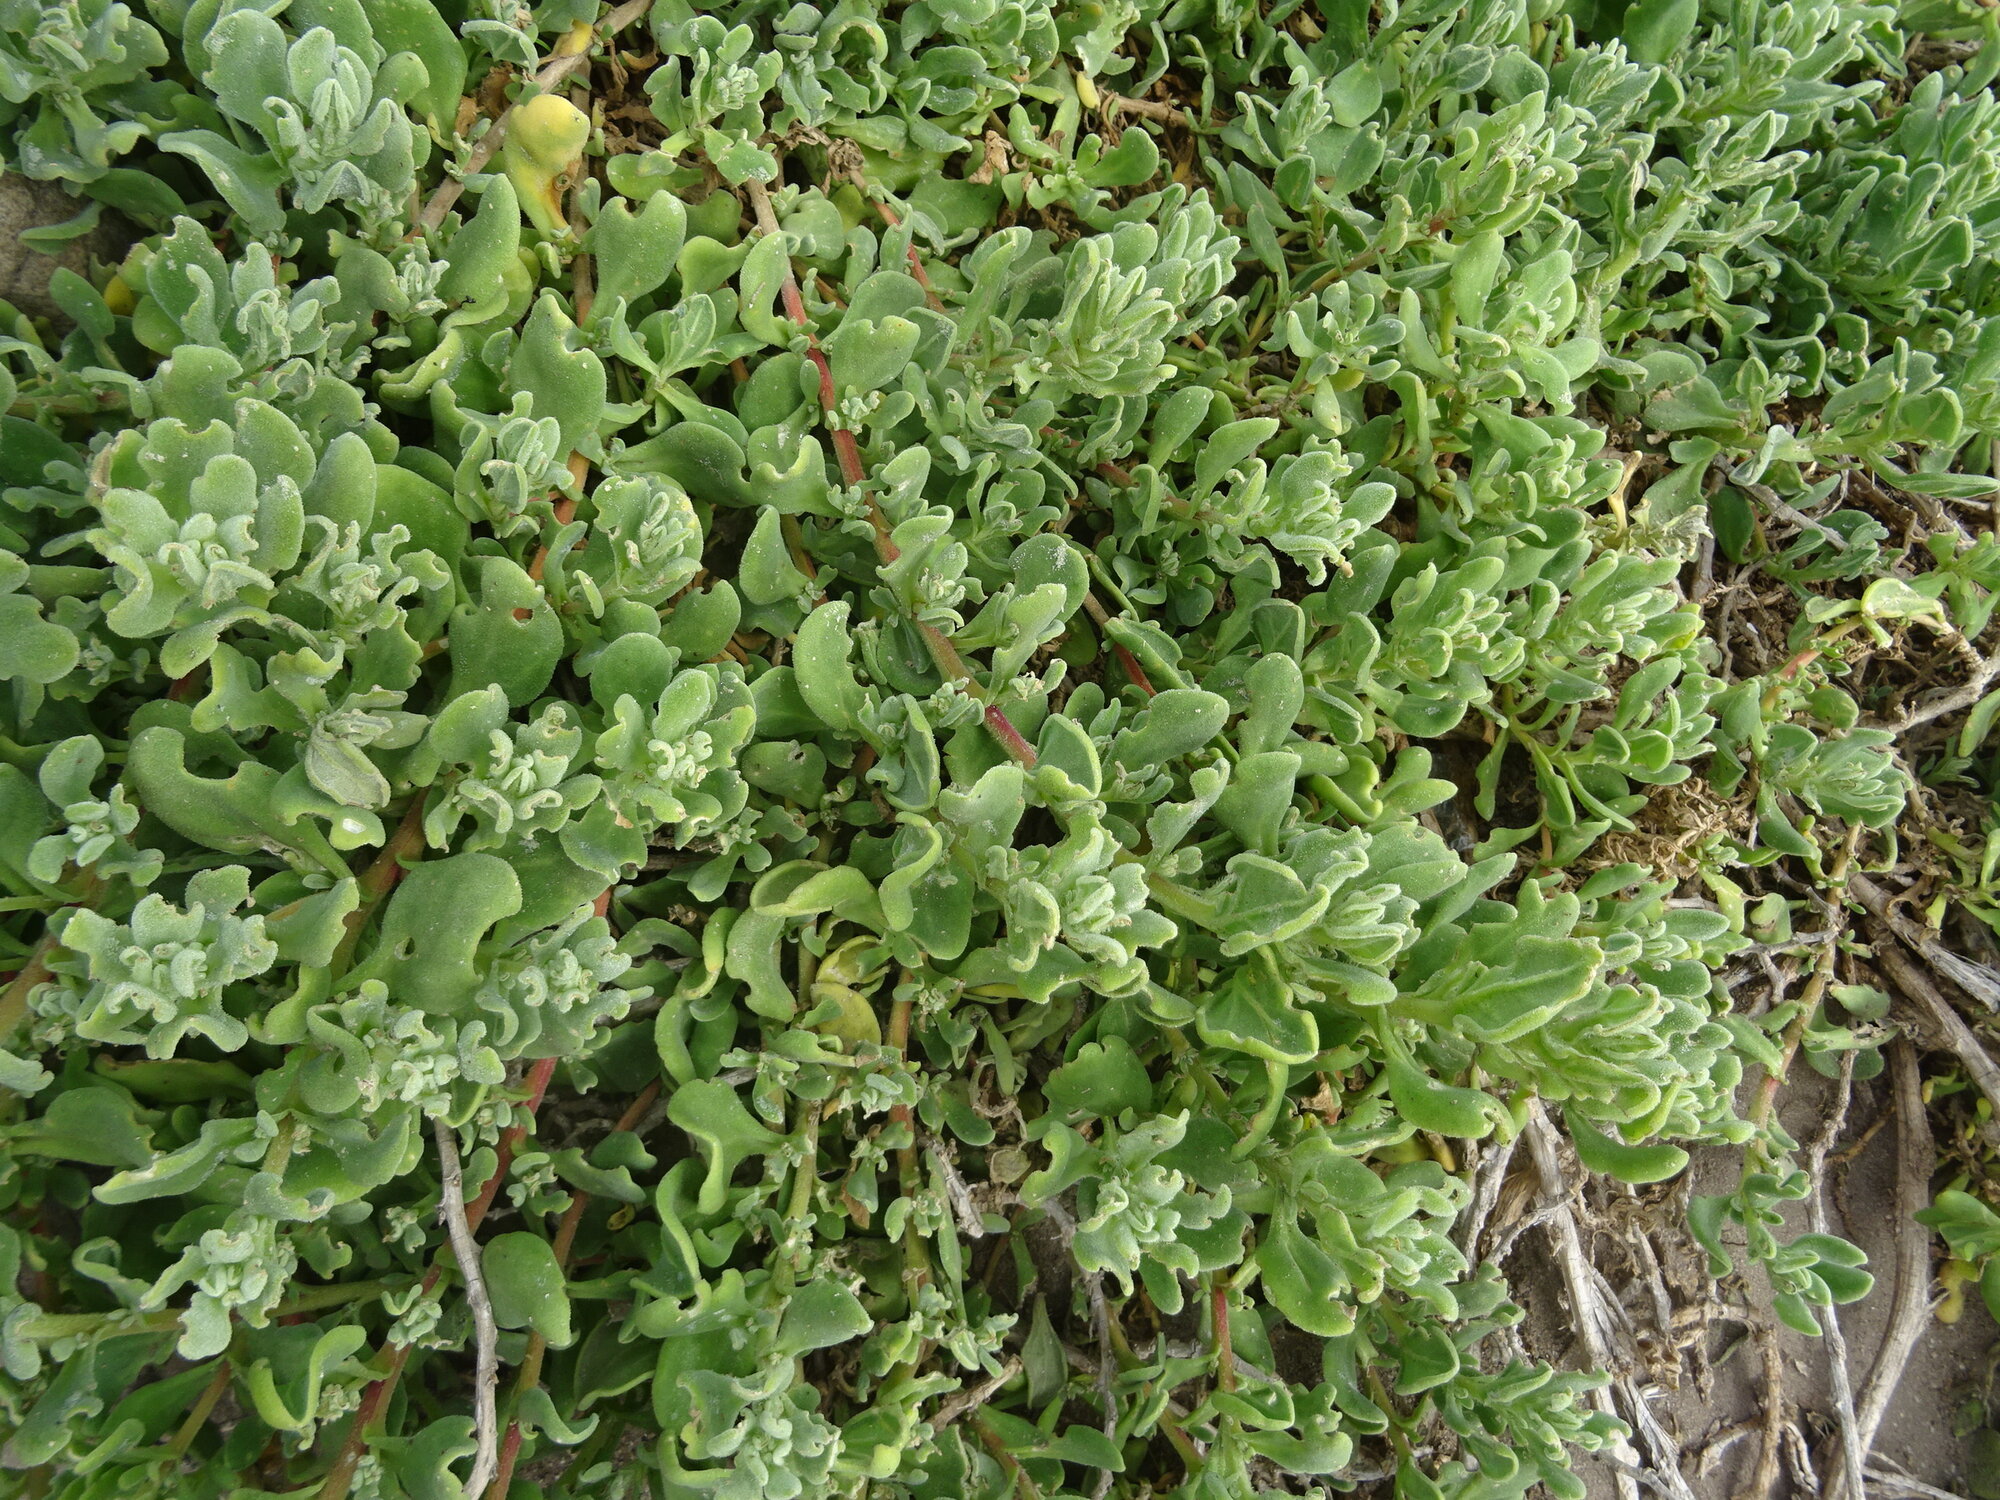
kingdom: Plantae
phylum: Tracheophyta
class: Magnoliopsida
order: Caryophyllales
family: Aizoaceae
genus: Tetragonia
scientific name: Tetragonia decumbens
